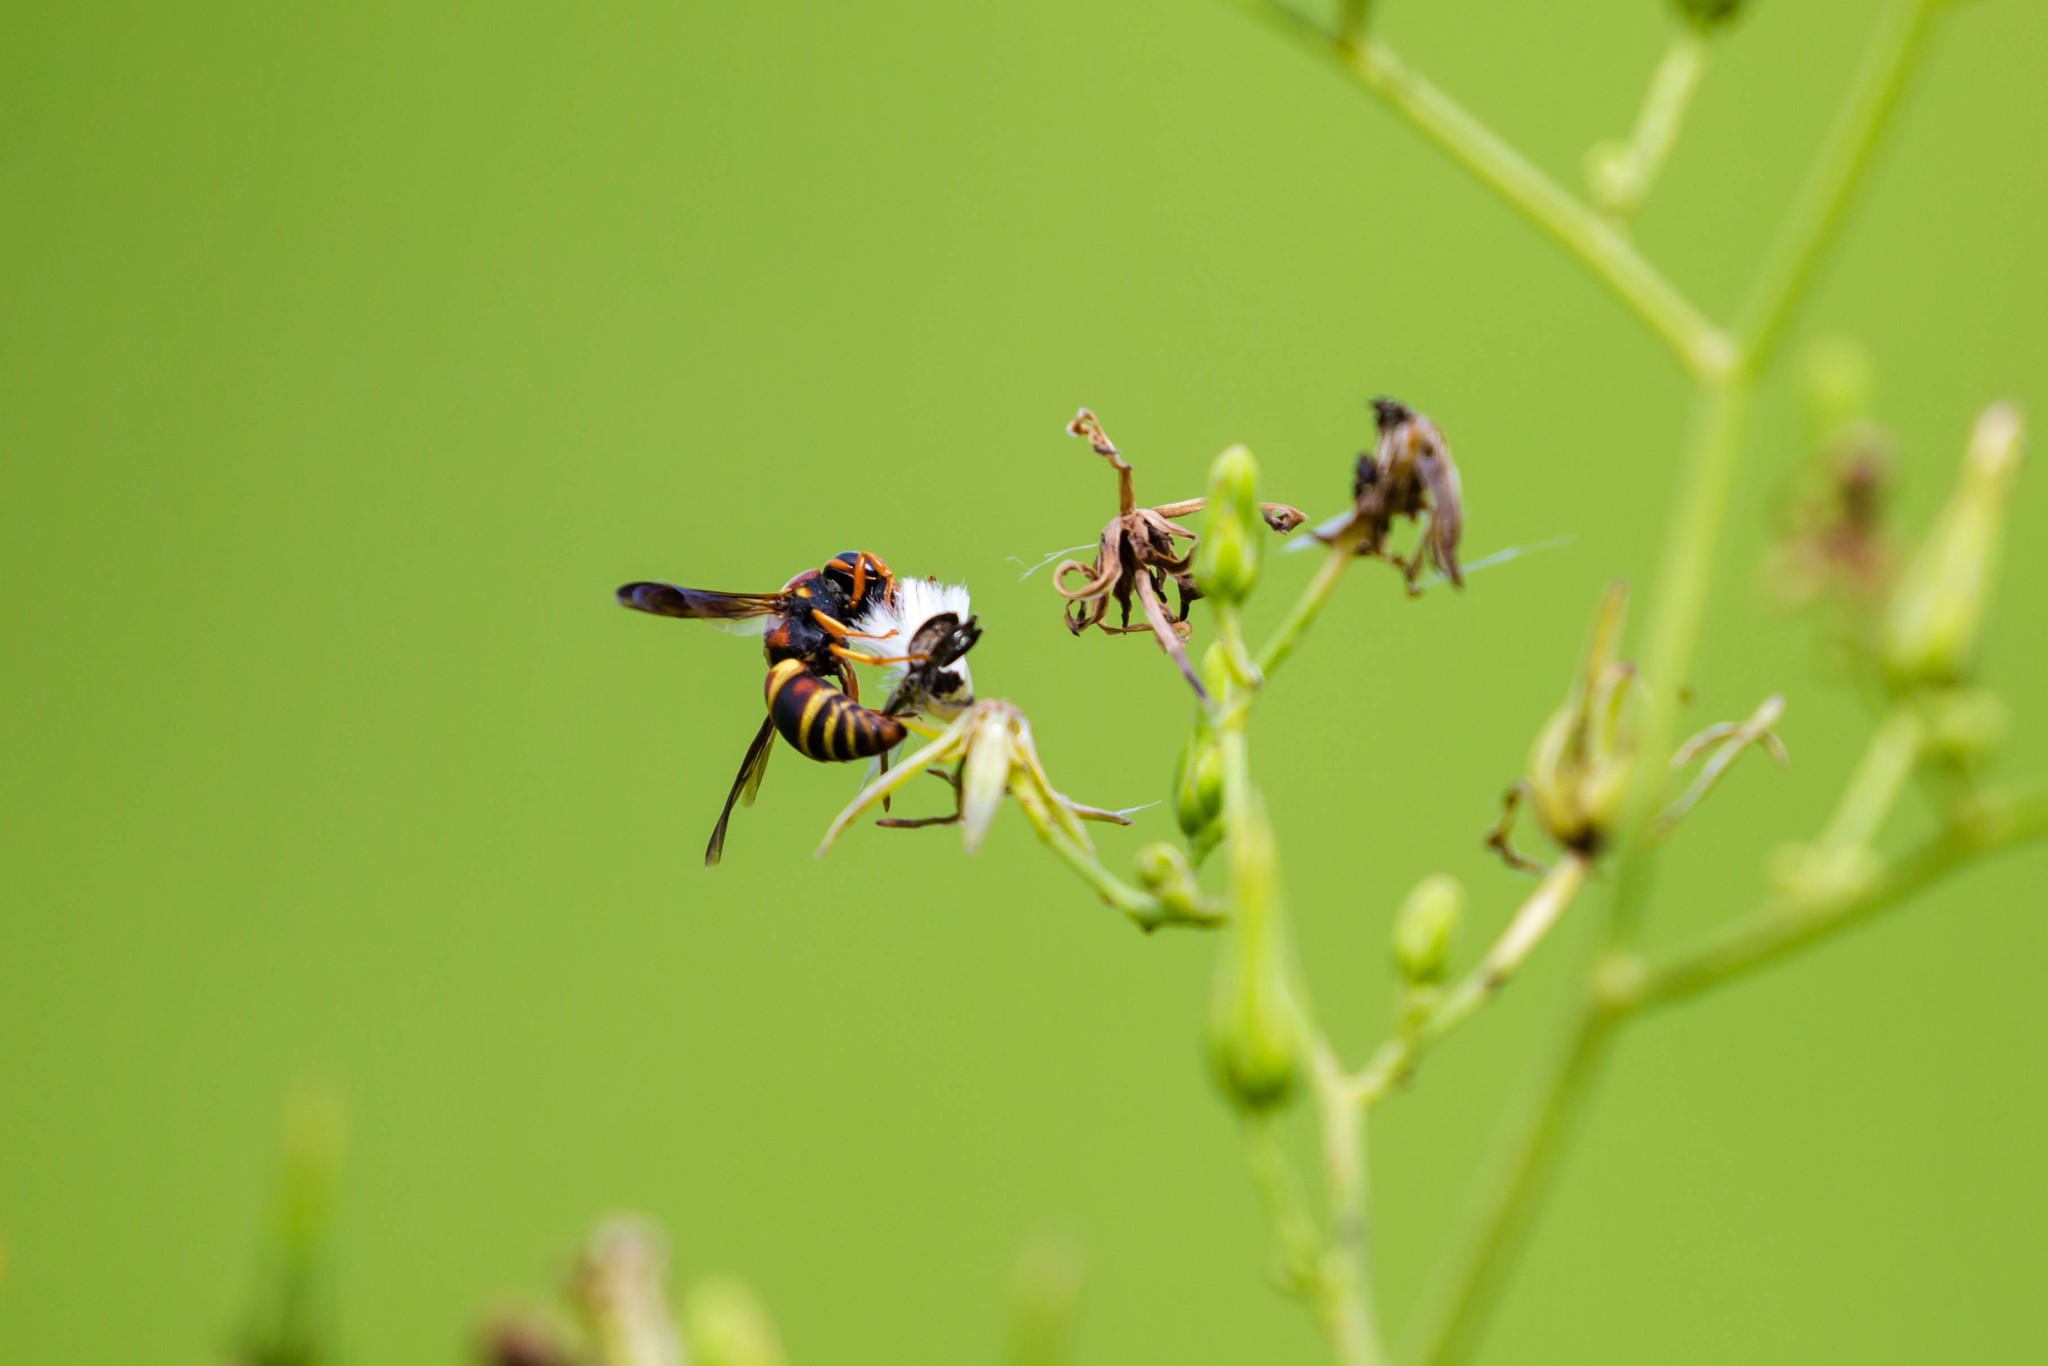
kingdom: Animalia
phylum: Arthropoda
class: Insecta
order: Hymenoptera
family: Eumenidae
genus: Euodynerus
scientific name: Euodynerus hidalgo
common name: Wasp
